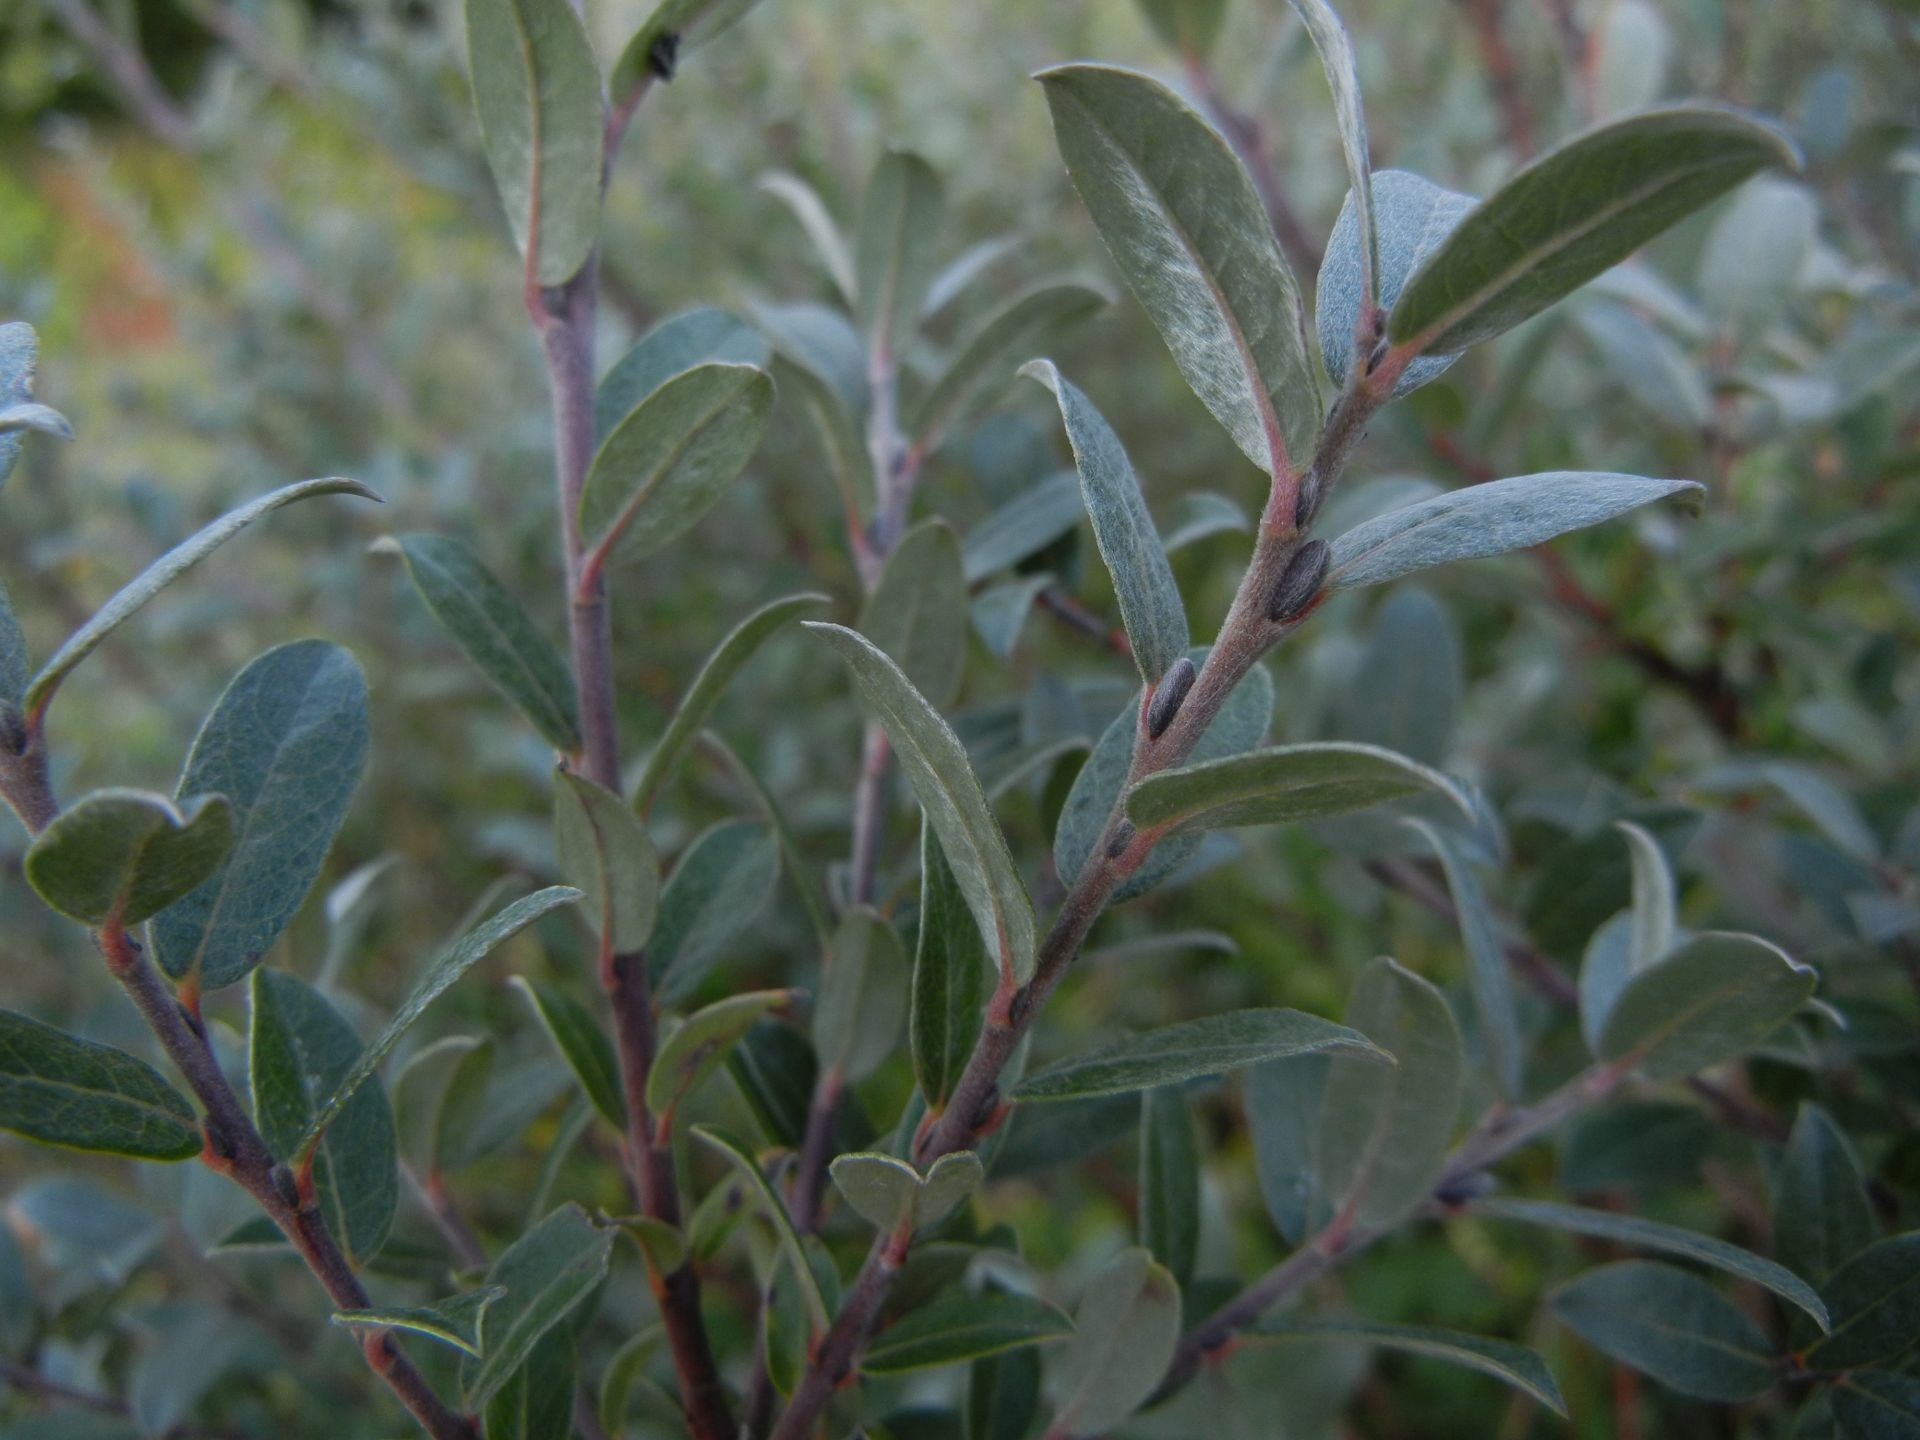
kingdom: Plantae
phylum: Tracheophyta
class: Magnoliopsida
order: Malpighiales
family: Salicaceae
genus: Salix
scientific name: Salix repens
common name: Creeping willow
